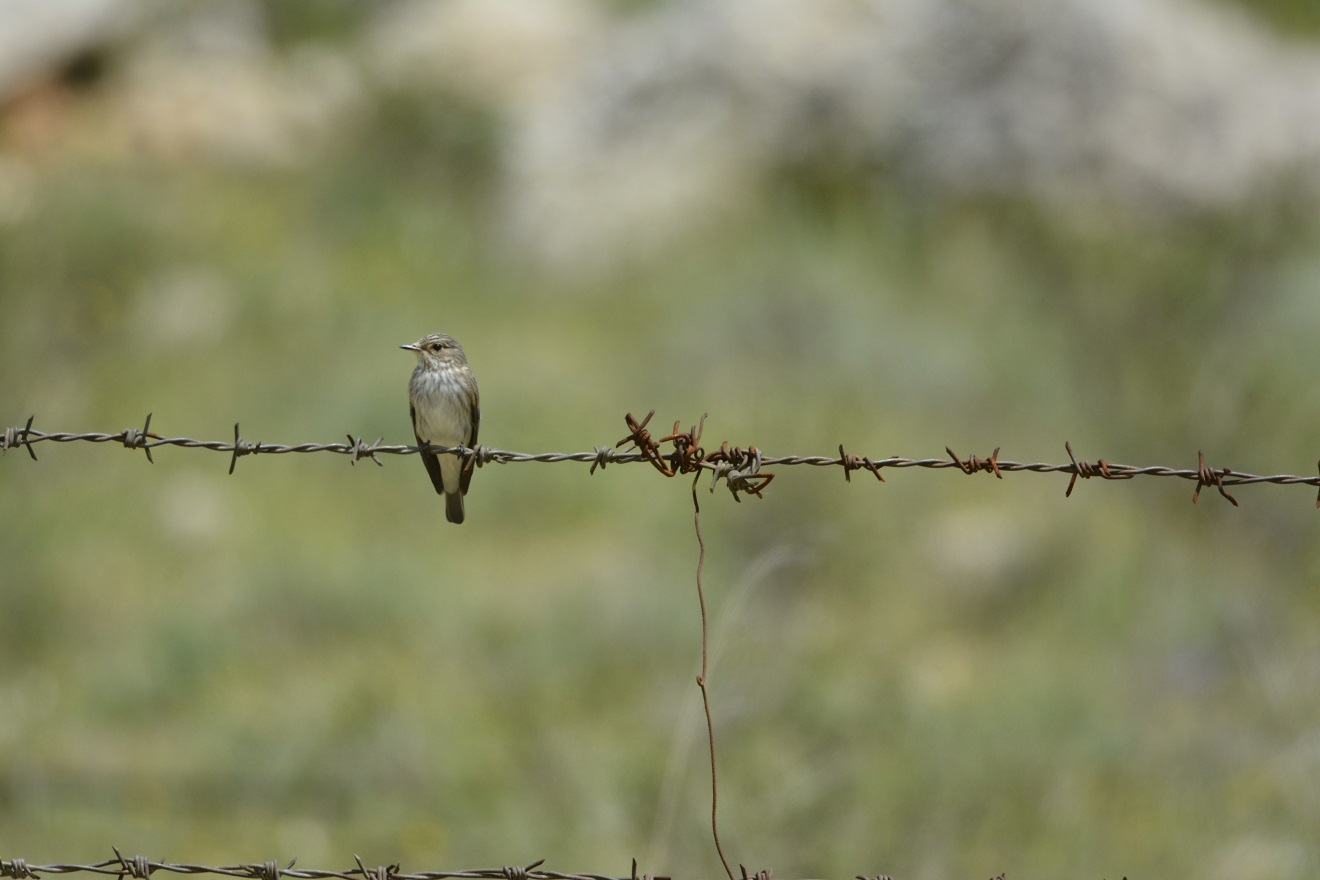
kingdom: Animalia
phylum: Chordata
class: Aves
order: Passeriformes
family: Muscicapidae
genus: Muscicapa
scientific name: Muscicapa striata
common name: Spotted flycatcher
